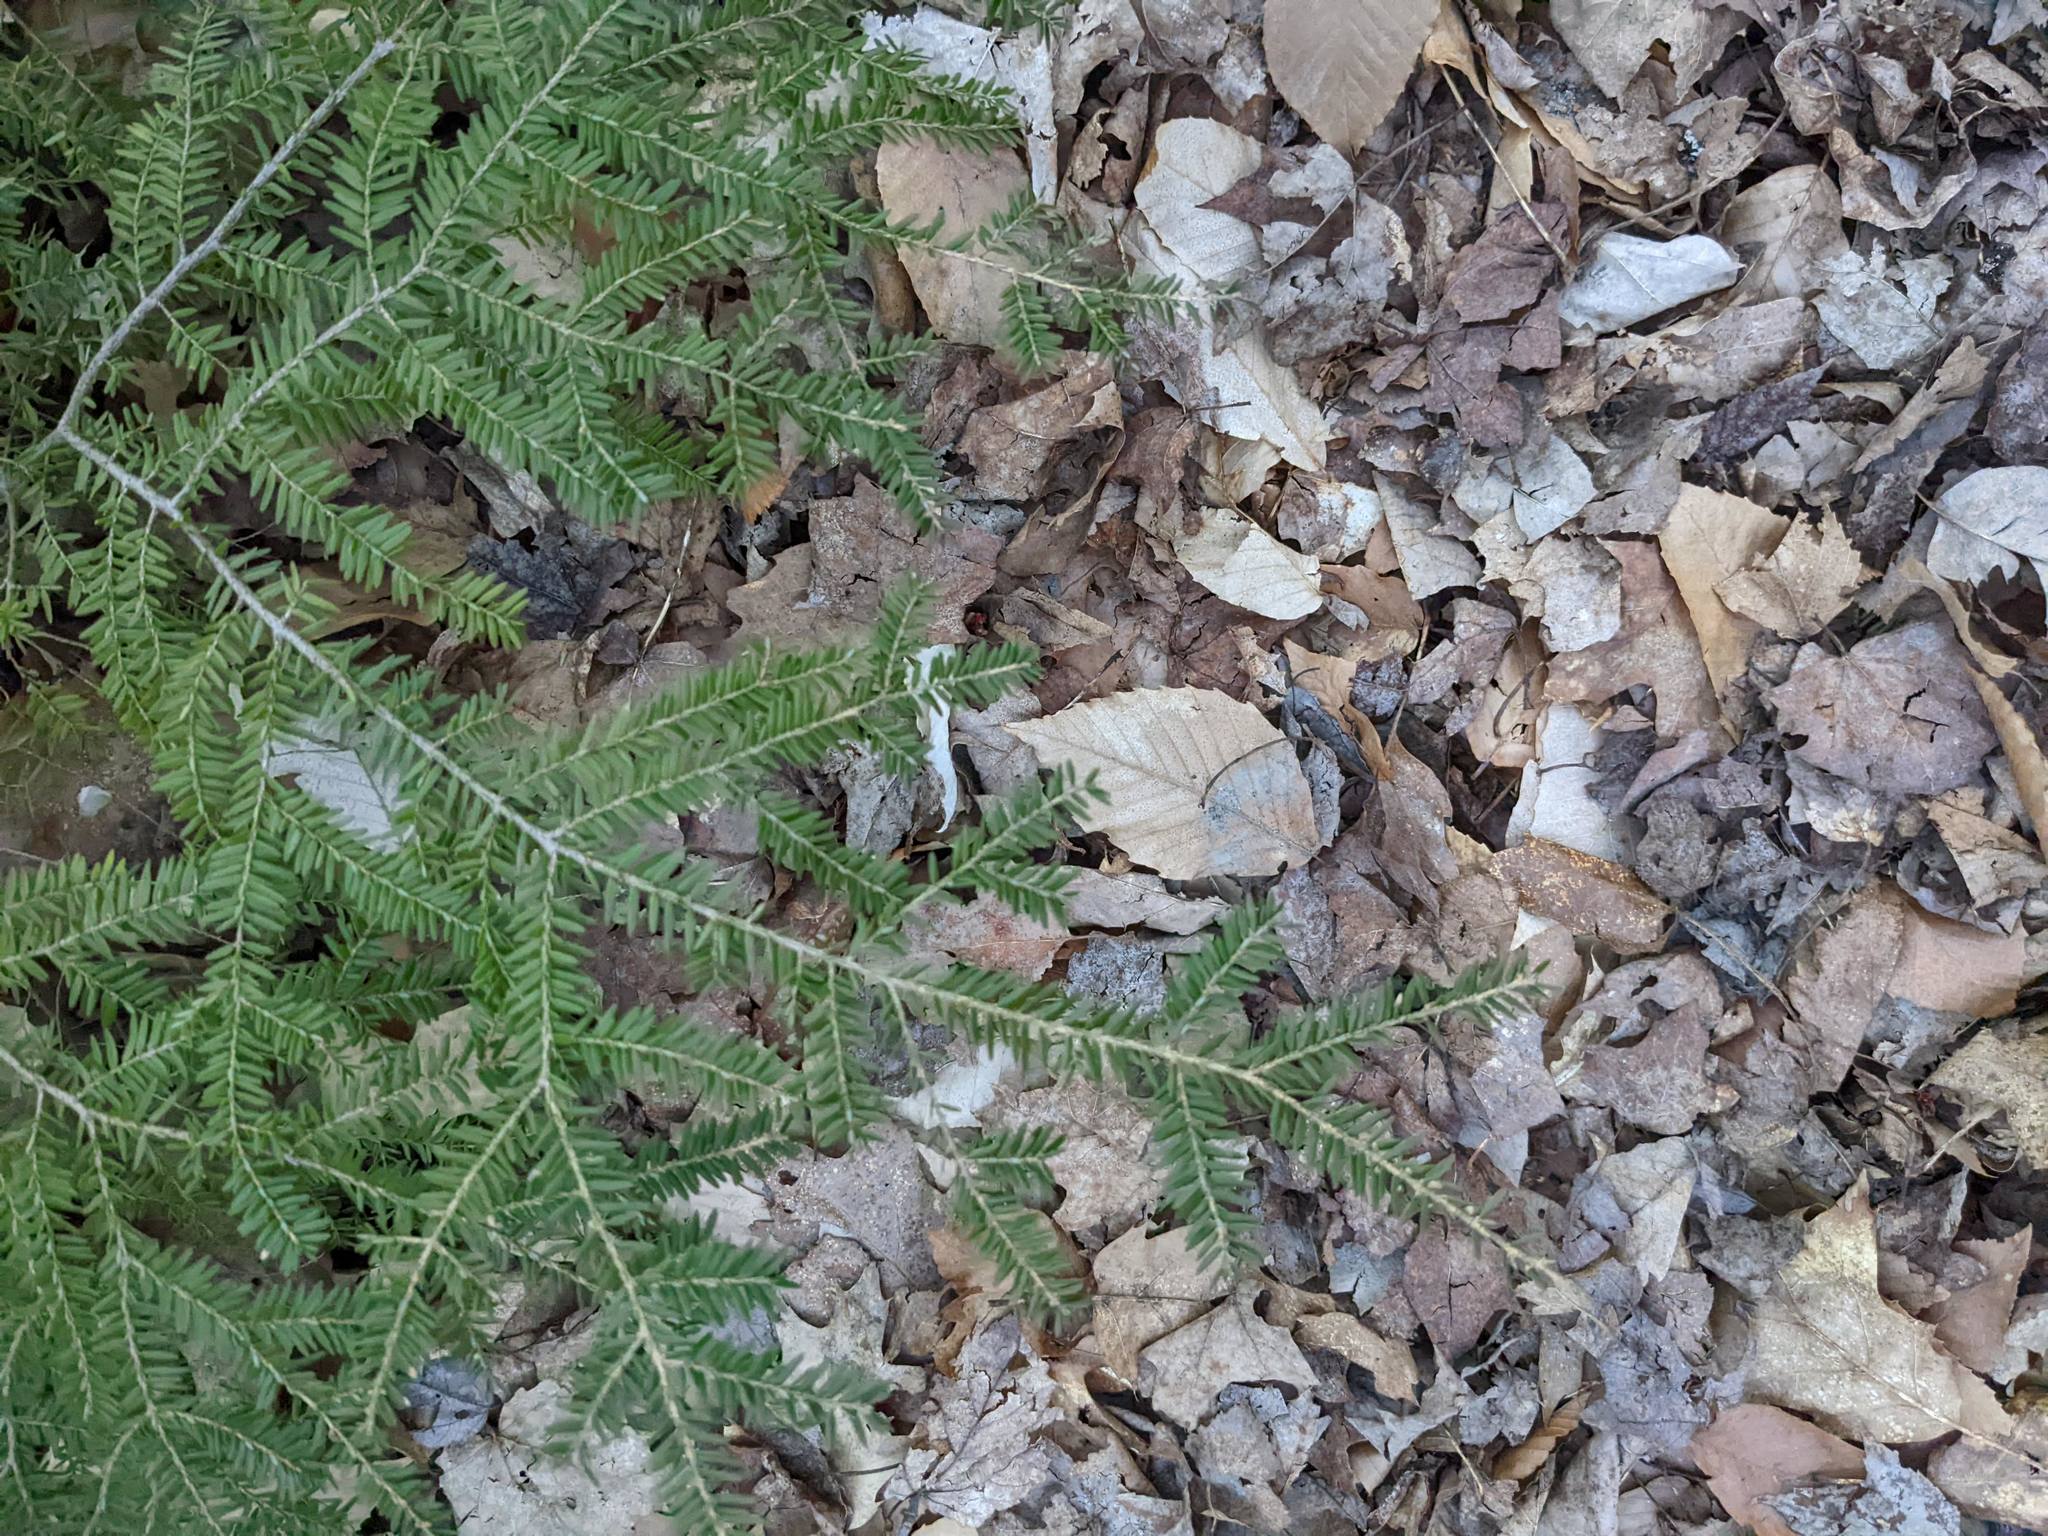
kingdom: Plantae
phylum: Tracheophyta
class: Pinopsida
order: Pinales
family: Pinaceae
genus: Tsuga
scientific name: Tsuga canadensis
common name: Eastern hemlock
